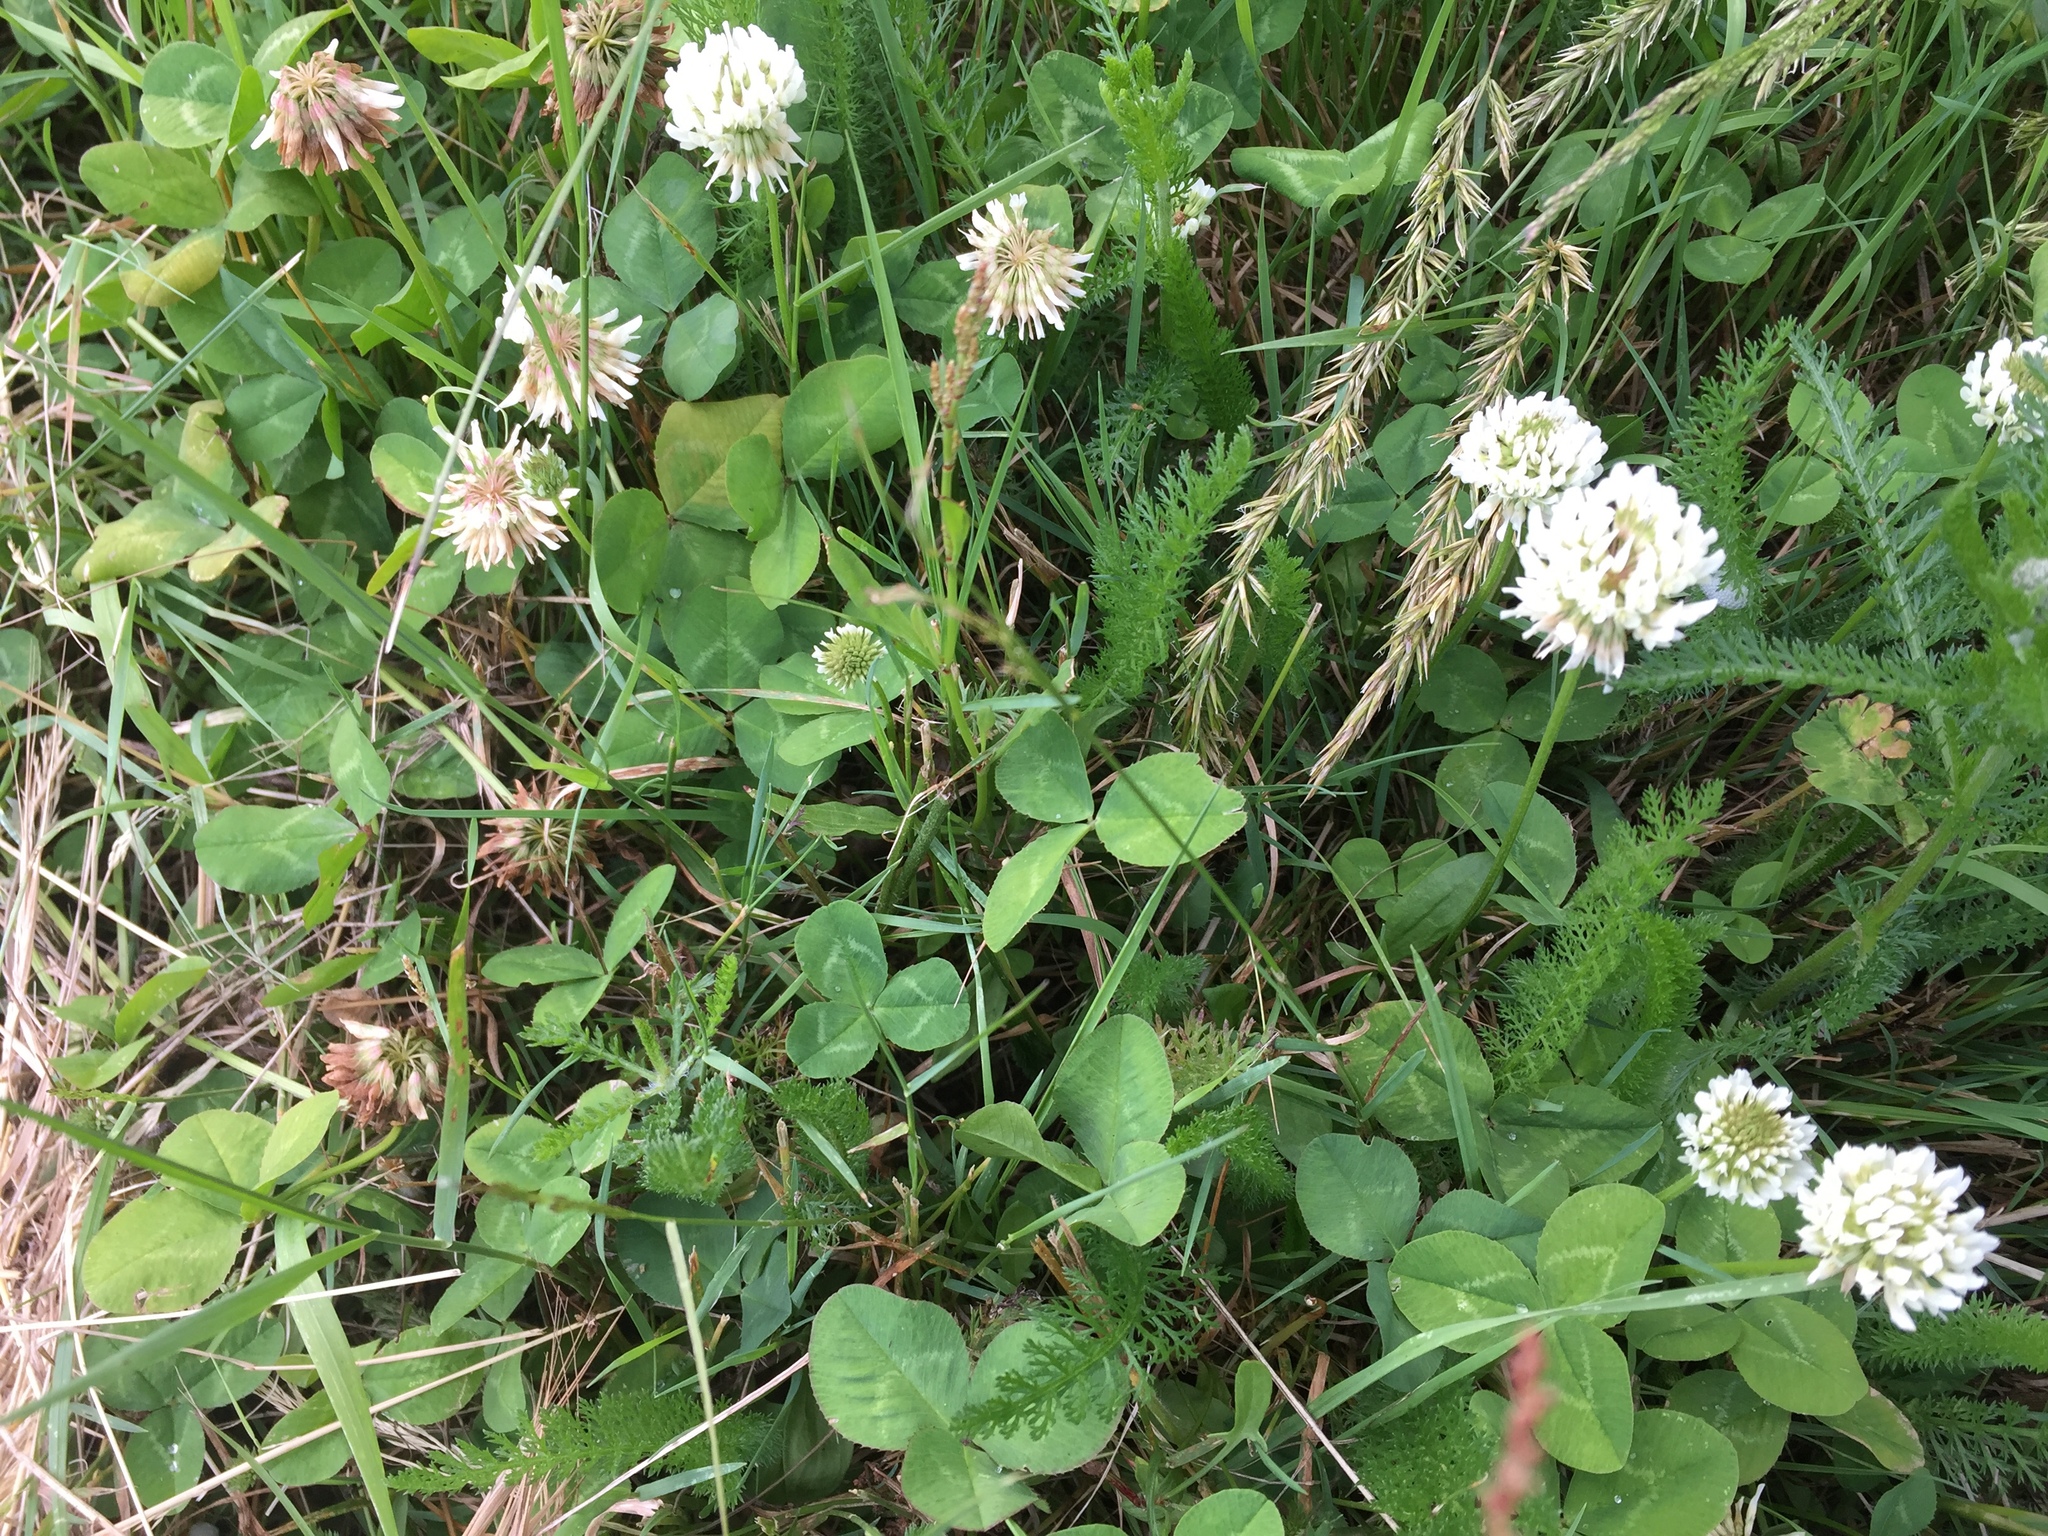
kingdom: Plantae
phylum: Tracheophyta
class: Magnoliopsida
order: Fabales
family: Fabaceae
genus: Trifolium
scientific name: Trifolium repens
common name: White clover
